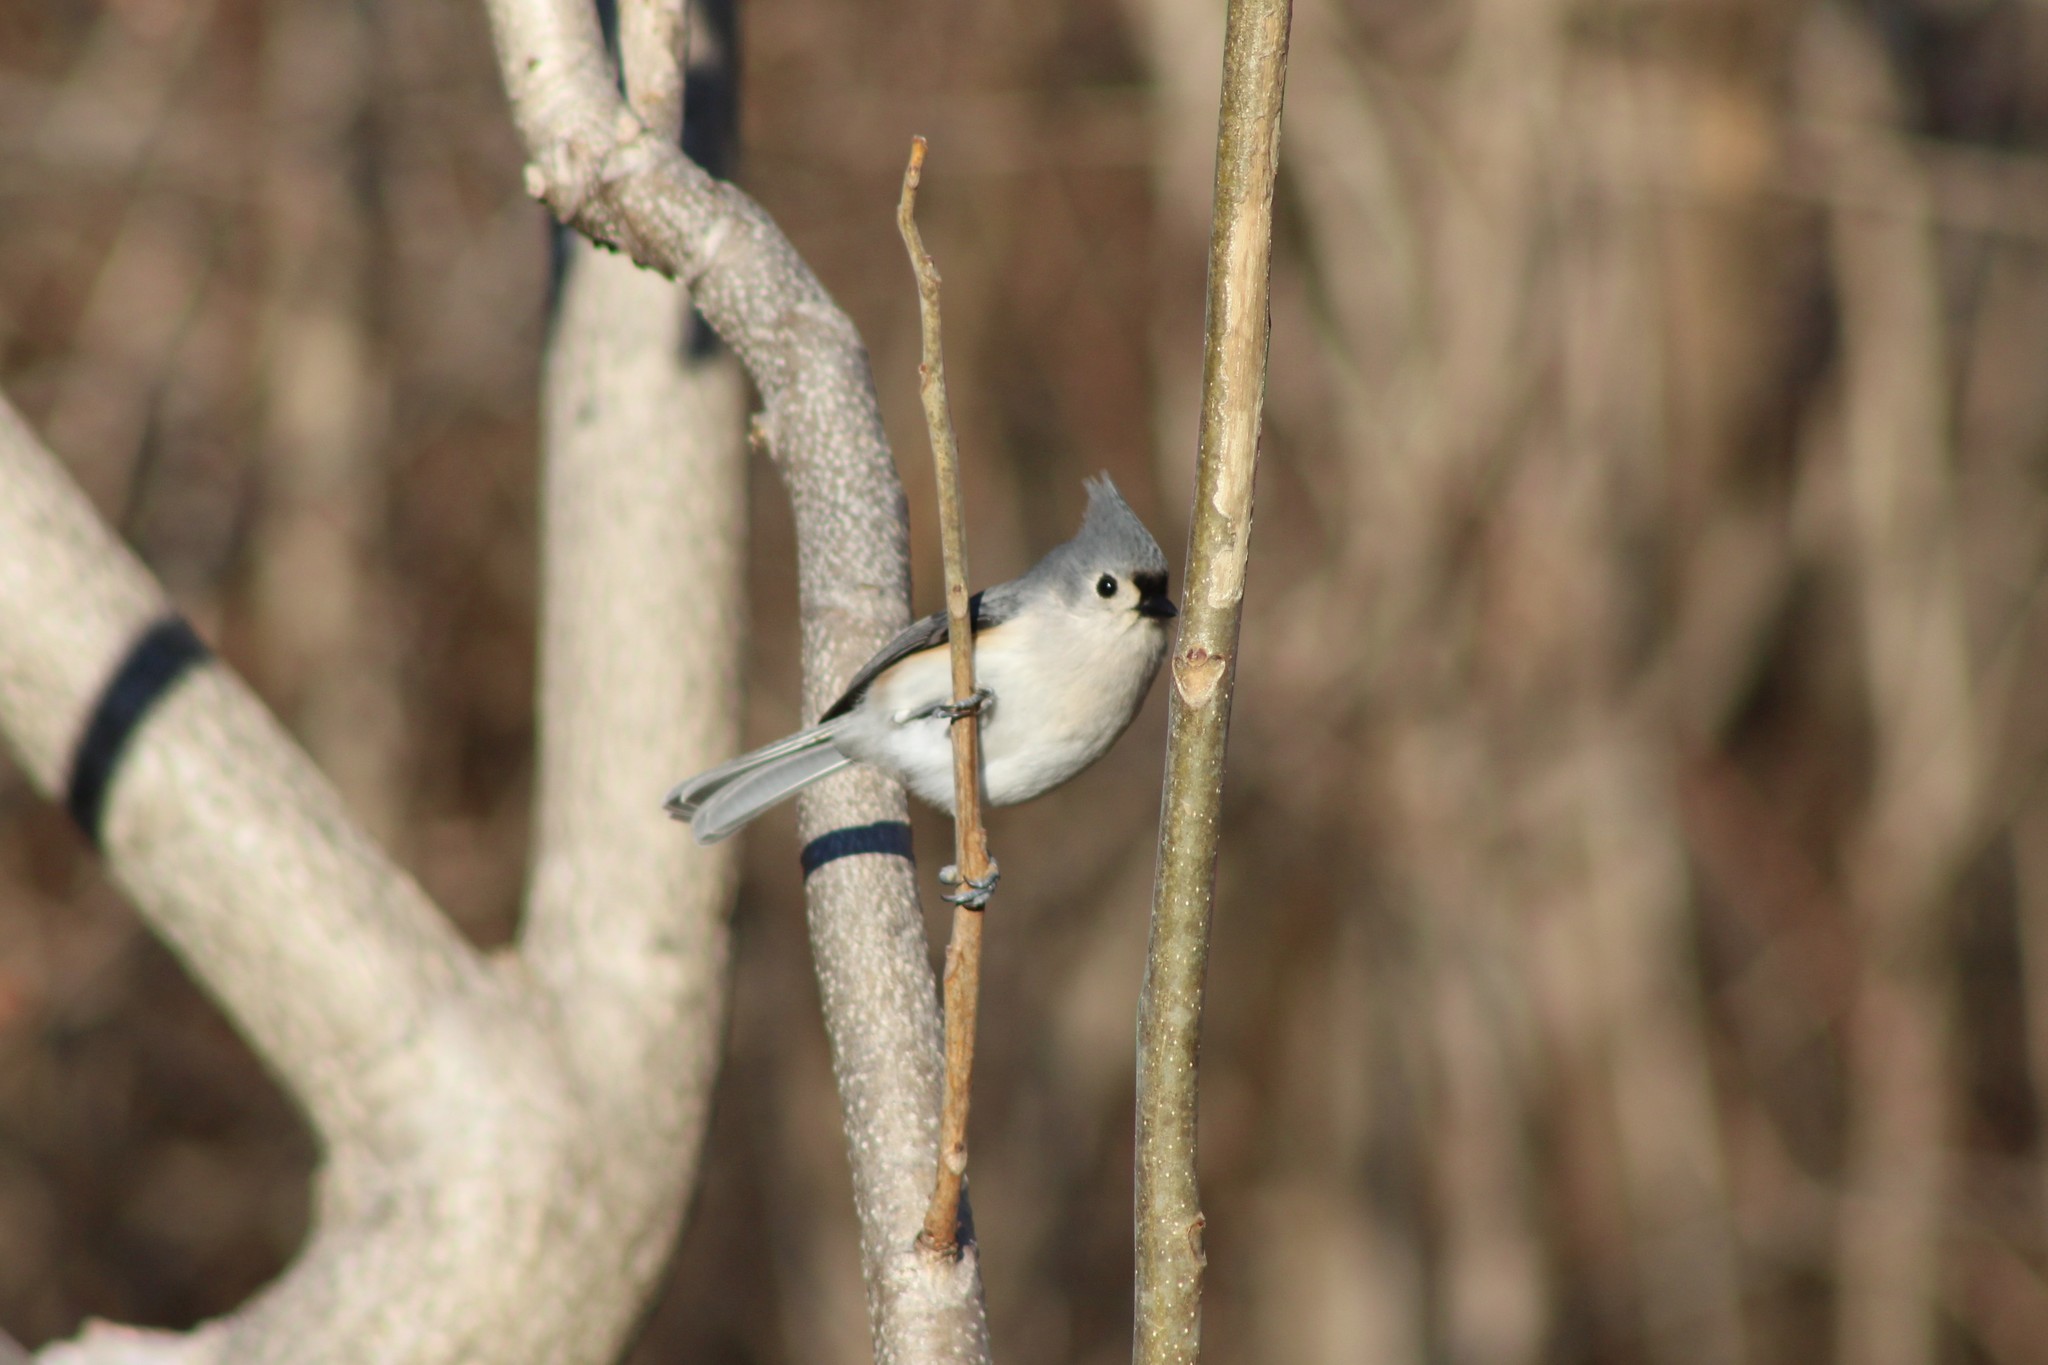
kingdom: Animalia
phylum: Chordata
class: Aves
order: Passeriformes
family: Paridae
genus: Baeolophus
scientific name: Baeolophus bicolor
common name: Tufted titmouse
